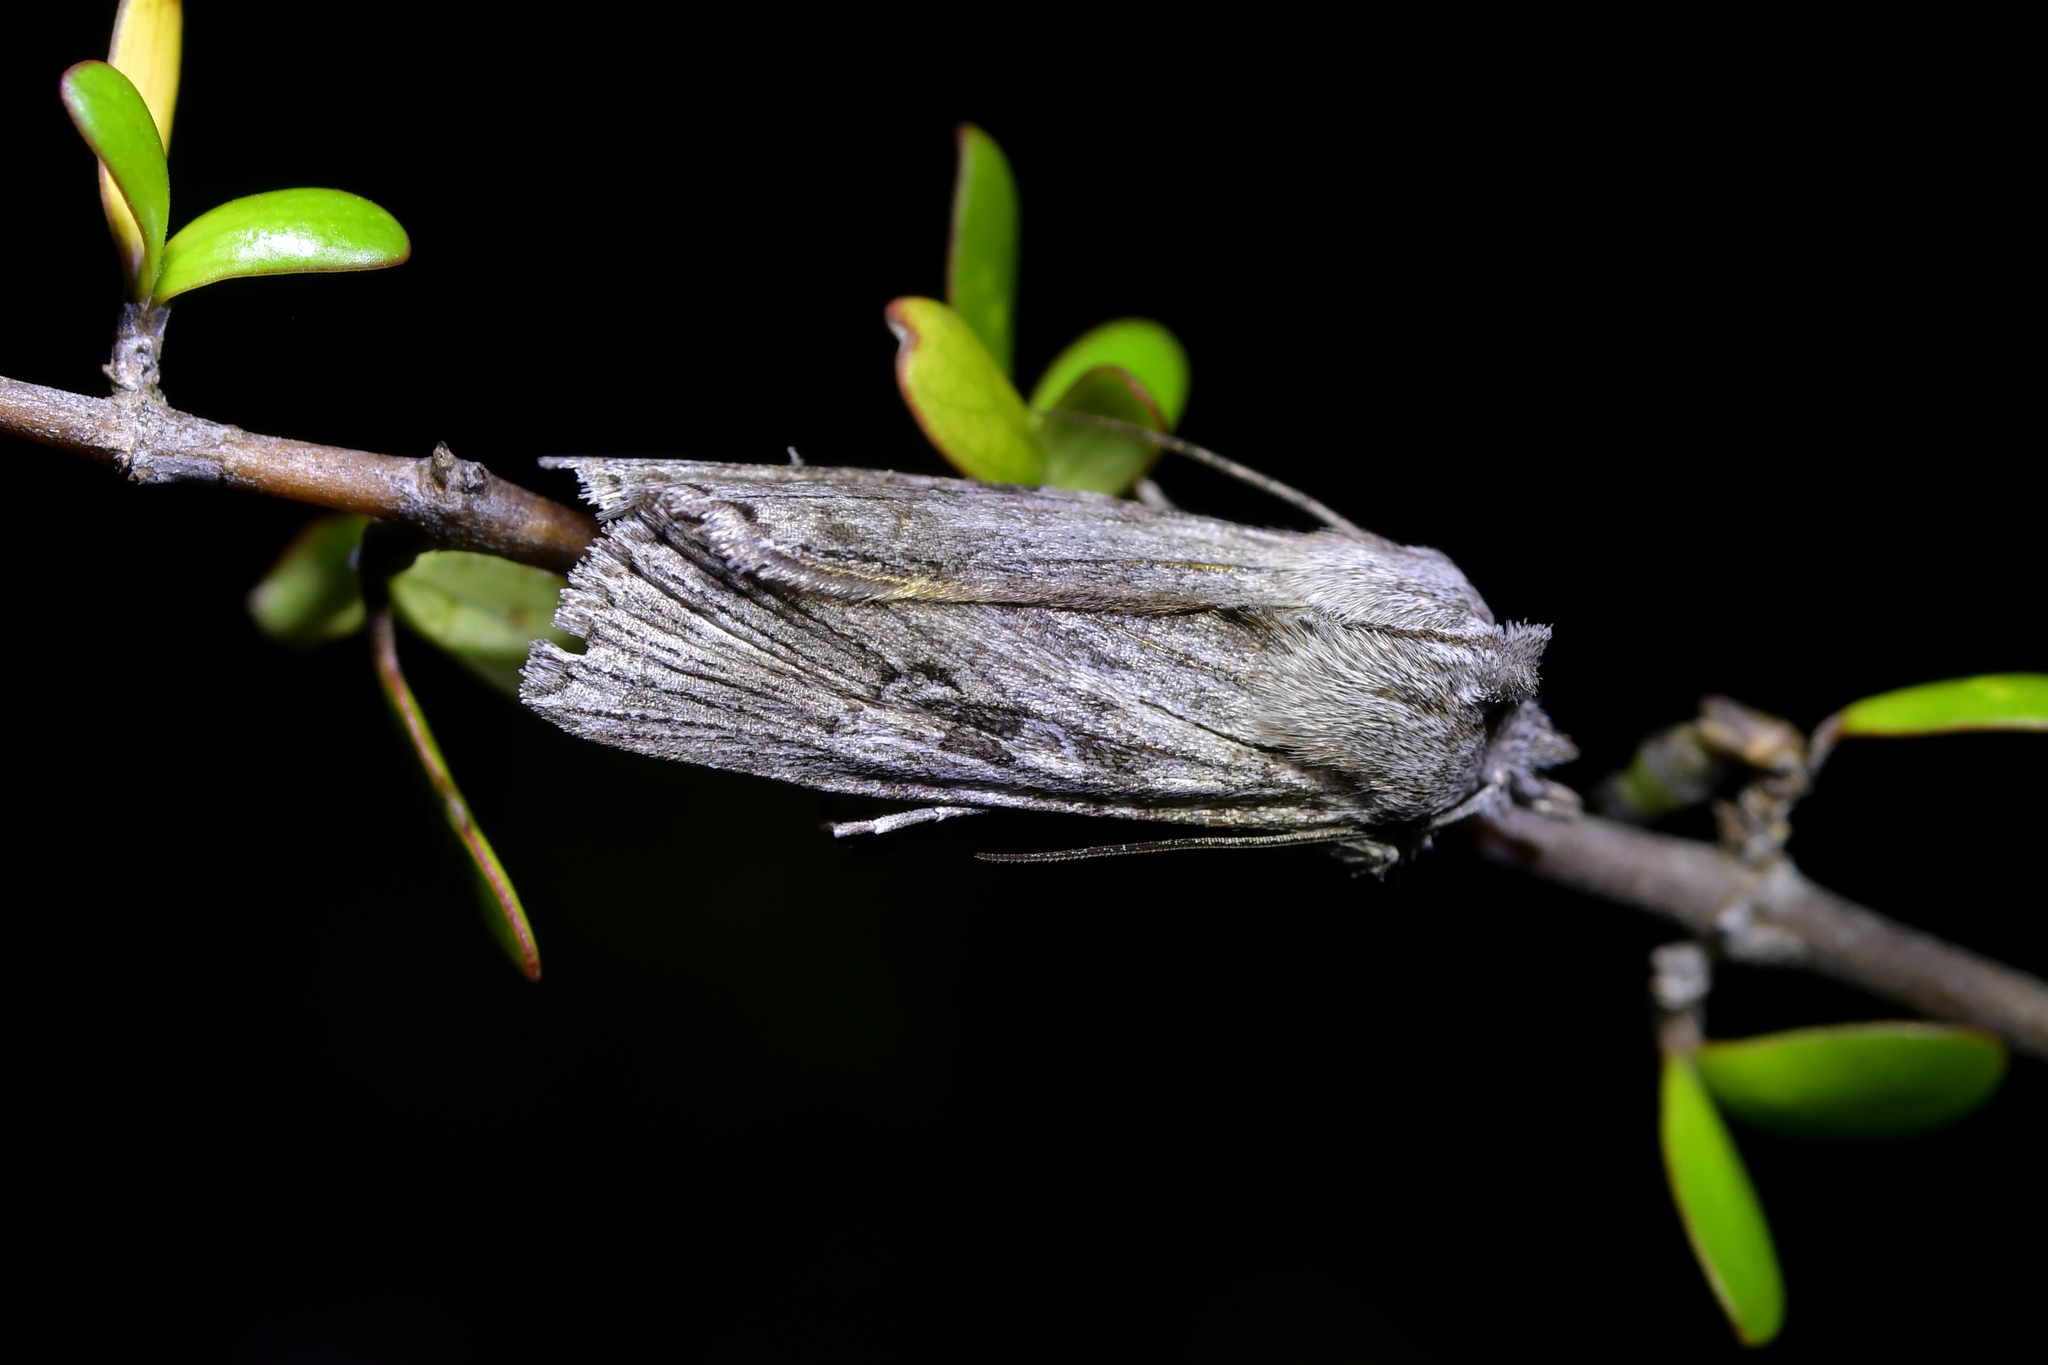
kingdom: Animalia
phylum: Arthropoda
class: Insecta
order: Lepidoptera
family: Noctuidae
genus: Physetica
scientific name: Physetica phricias
